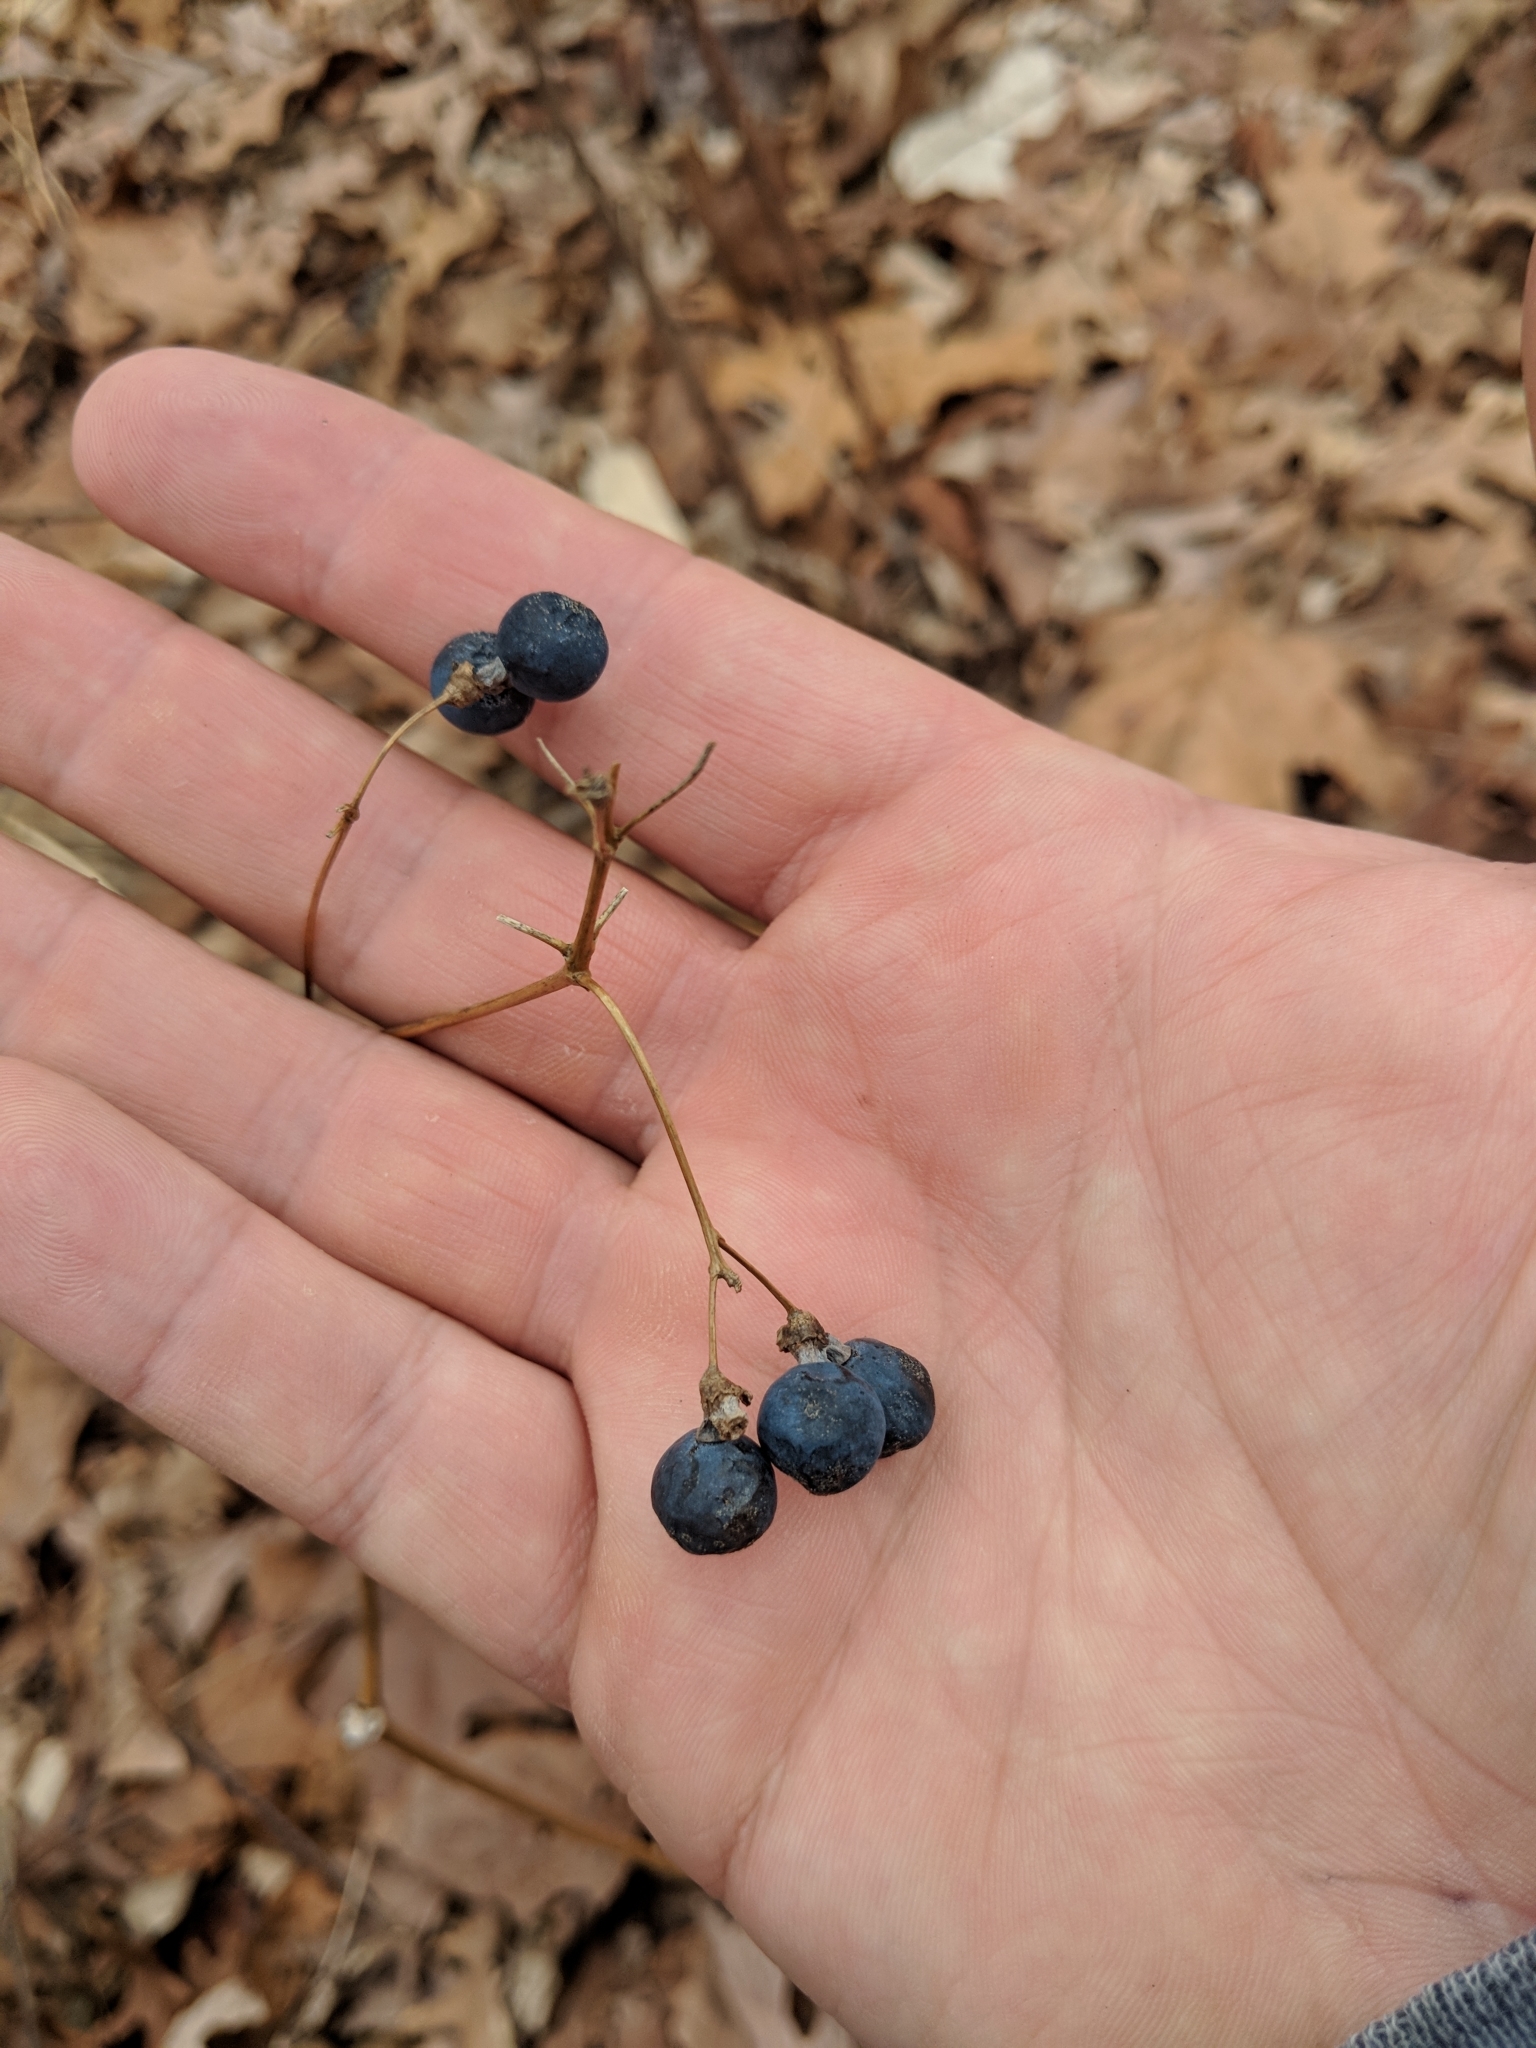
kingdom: Plantae
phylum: Tracheophyta
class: Magnoliopsida
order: Ranunculales
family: Berberidaceae
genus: Caulophyllum
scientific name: Caulophyllum thalictroides
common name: Blue cohosh
